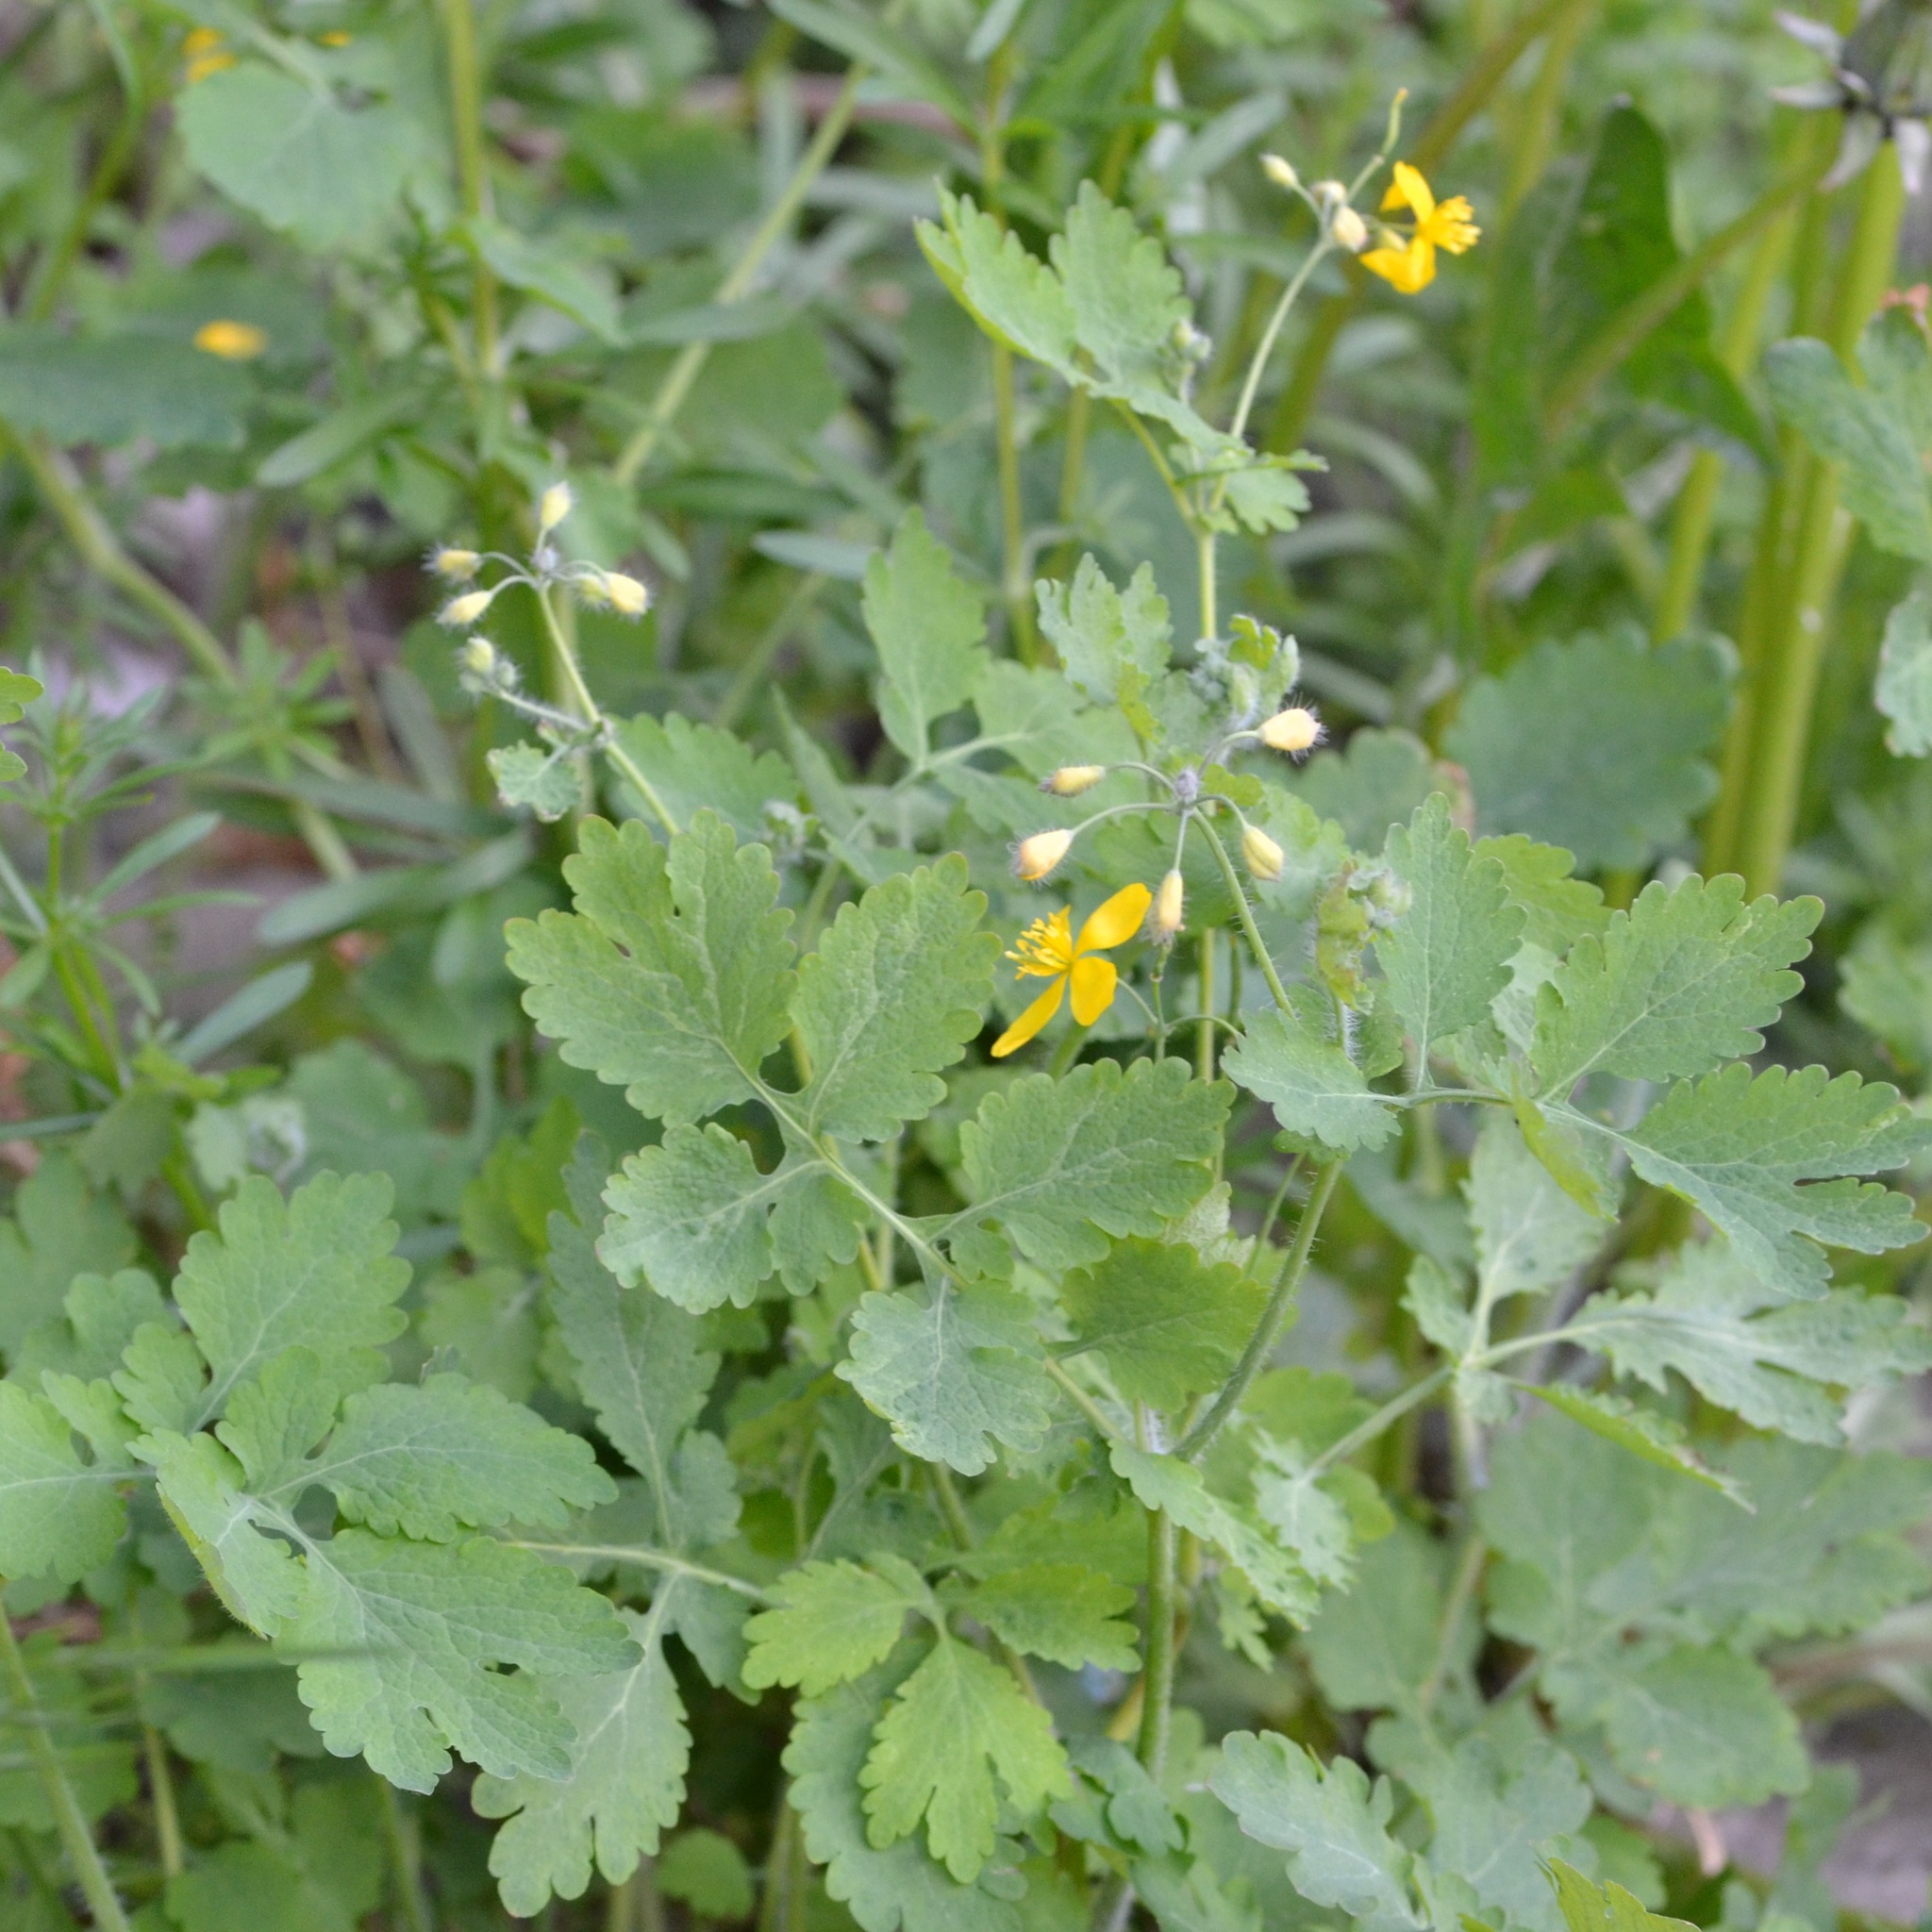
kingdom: Plantae
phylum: Tracheophyta
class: Magnoliopsida
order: Ranunculales
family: Papaveraceae
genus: Chelidonium
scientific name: Chelidonium majus
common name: Greater celandine
